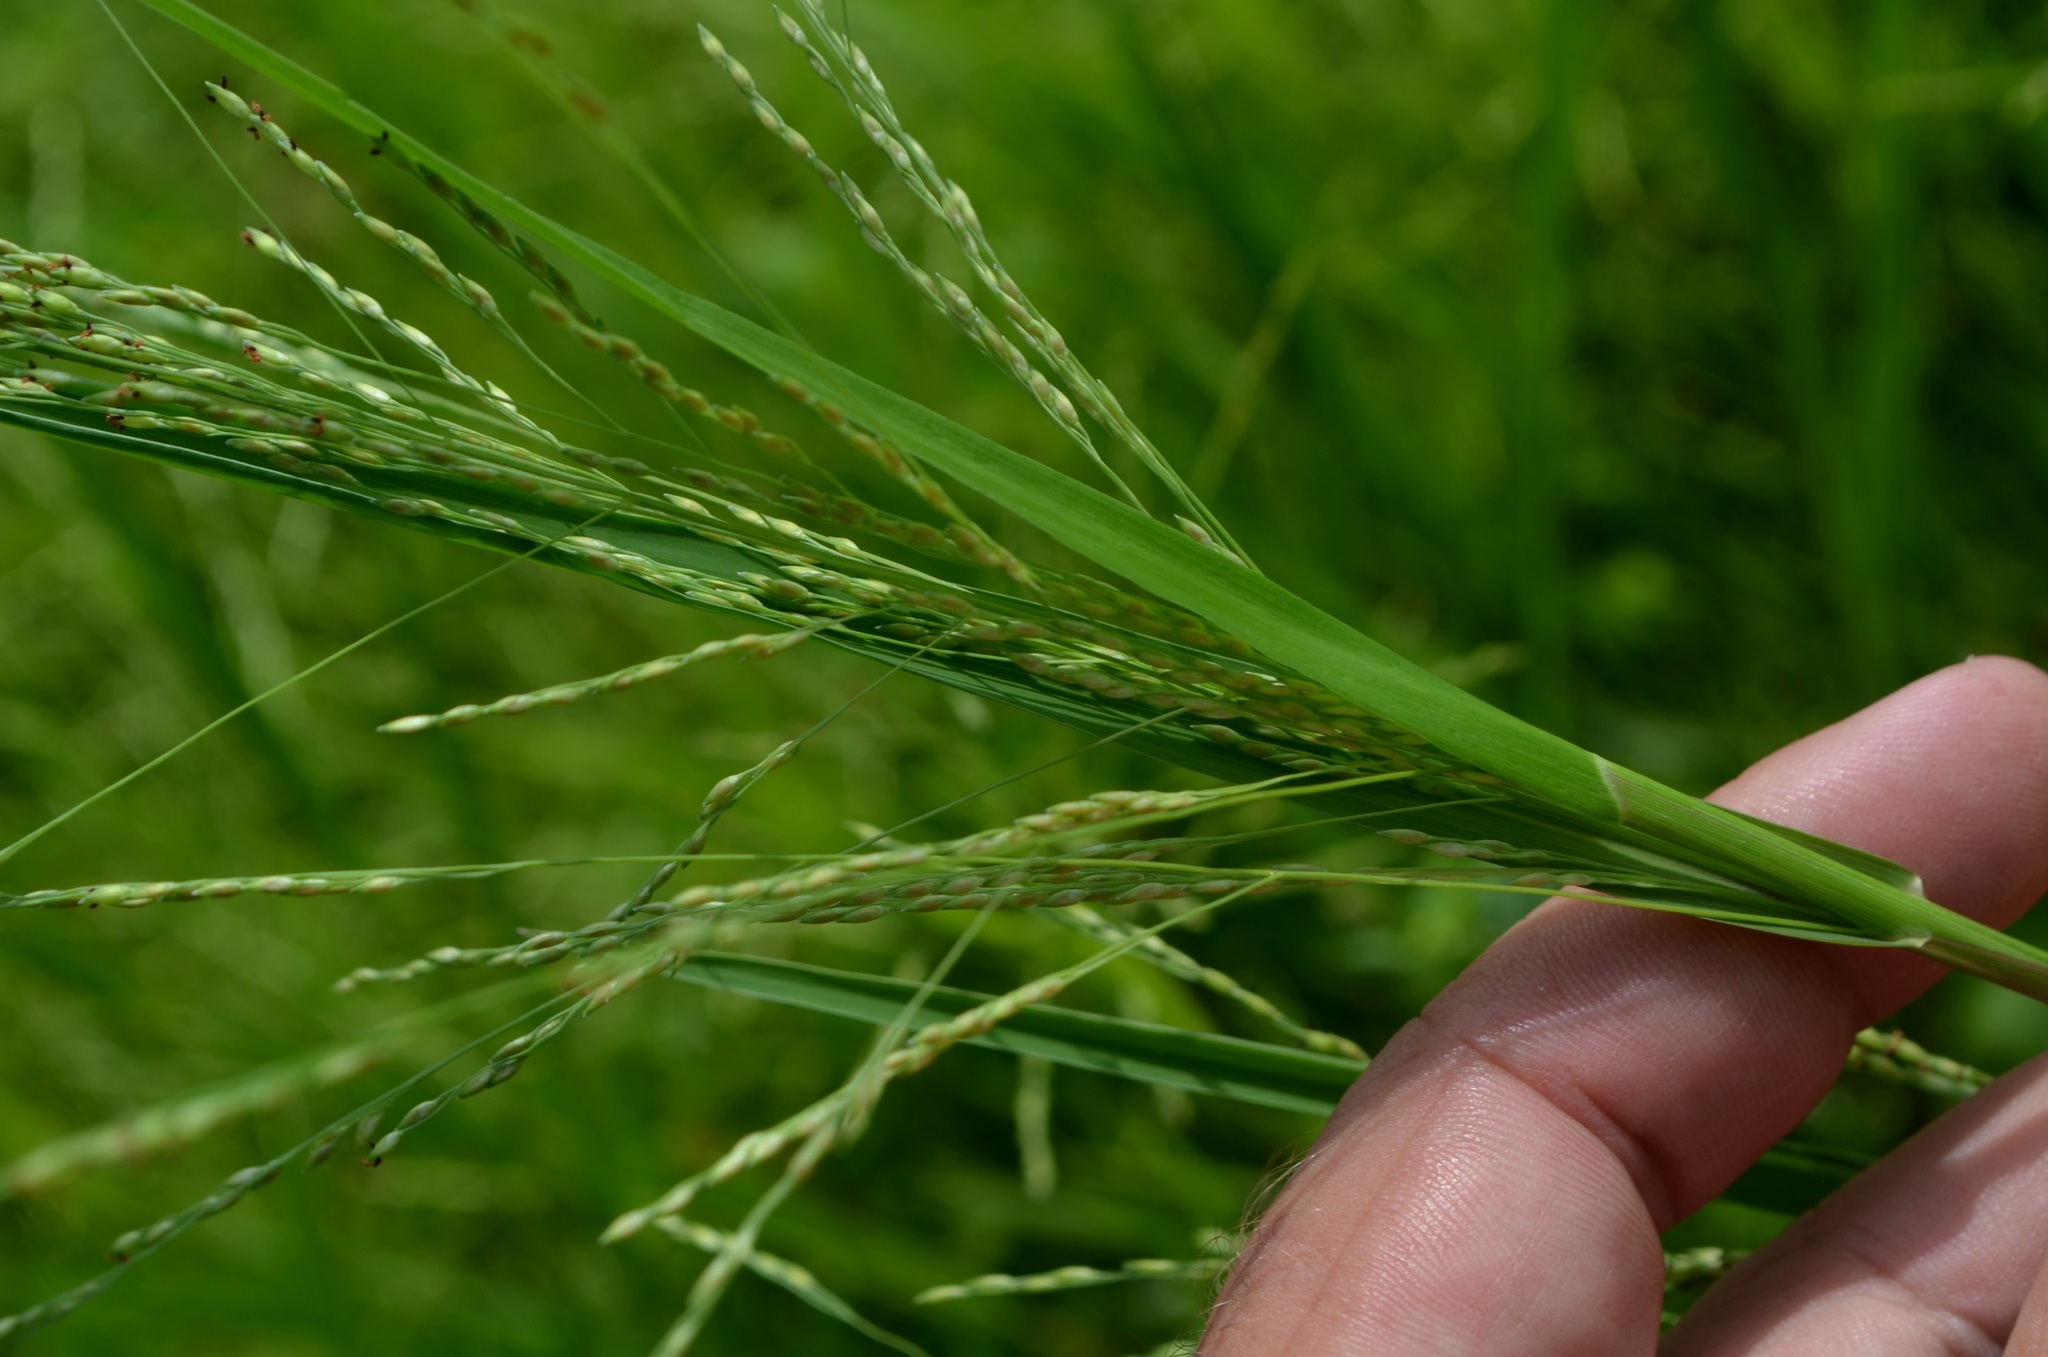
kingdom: Plantae
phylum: Tracheophyta
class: Liliopsida
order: Poales
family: Poaceae
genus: Panicum
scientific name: Panicum dichotomiflorum
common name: Autumn millet
